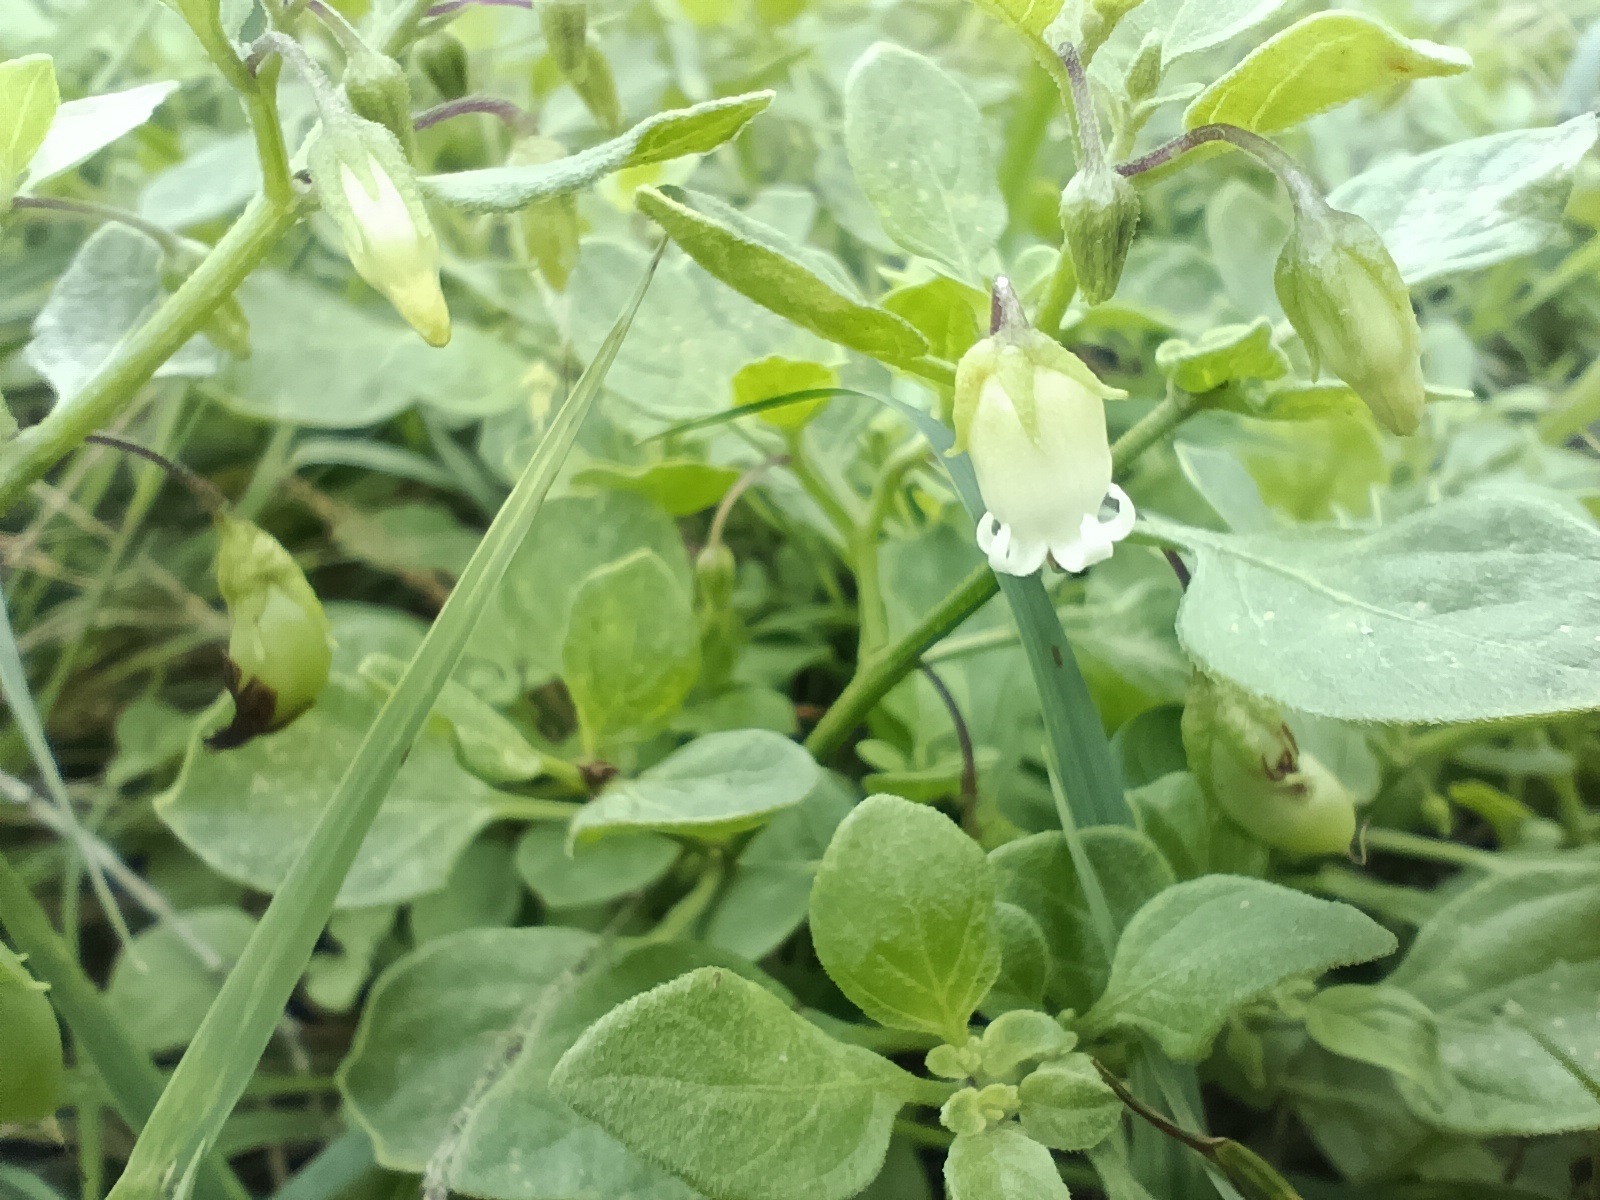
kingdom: Plantae
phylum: Tracheophyta
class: Magnoliopsida
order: Solanales
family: Solanaceae
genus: Salpichroa
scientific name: Salpichroa origanifolia
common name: Lily-of-the-valley-vine
